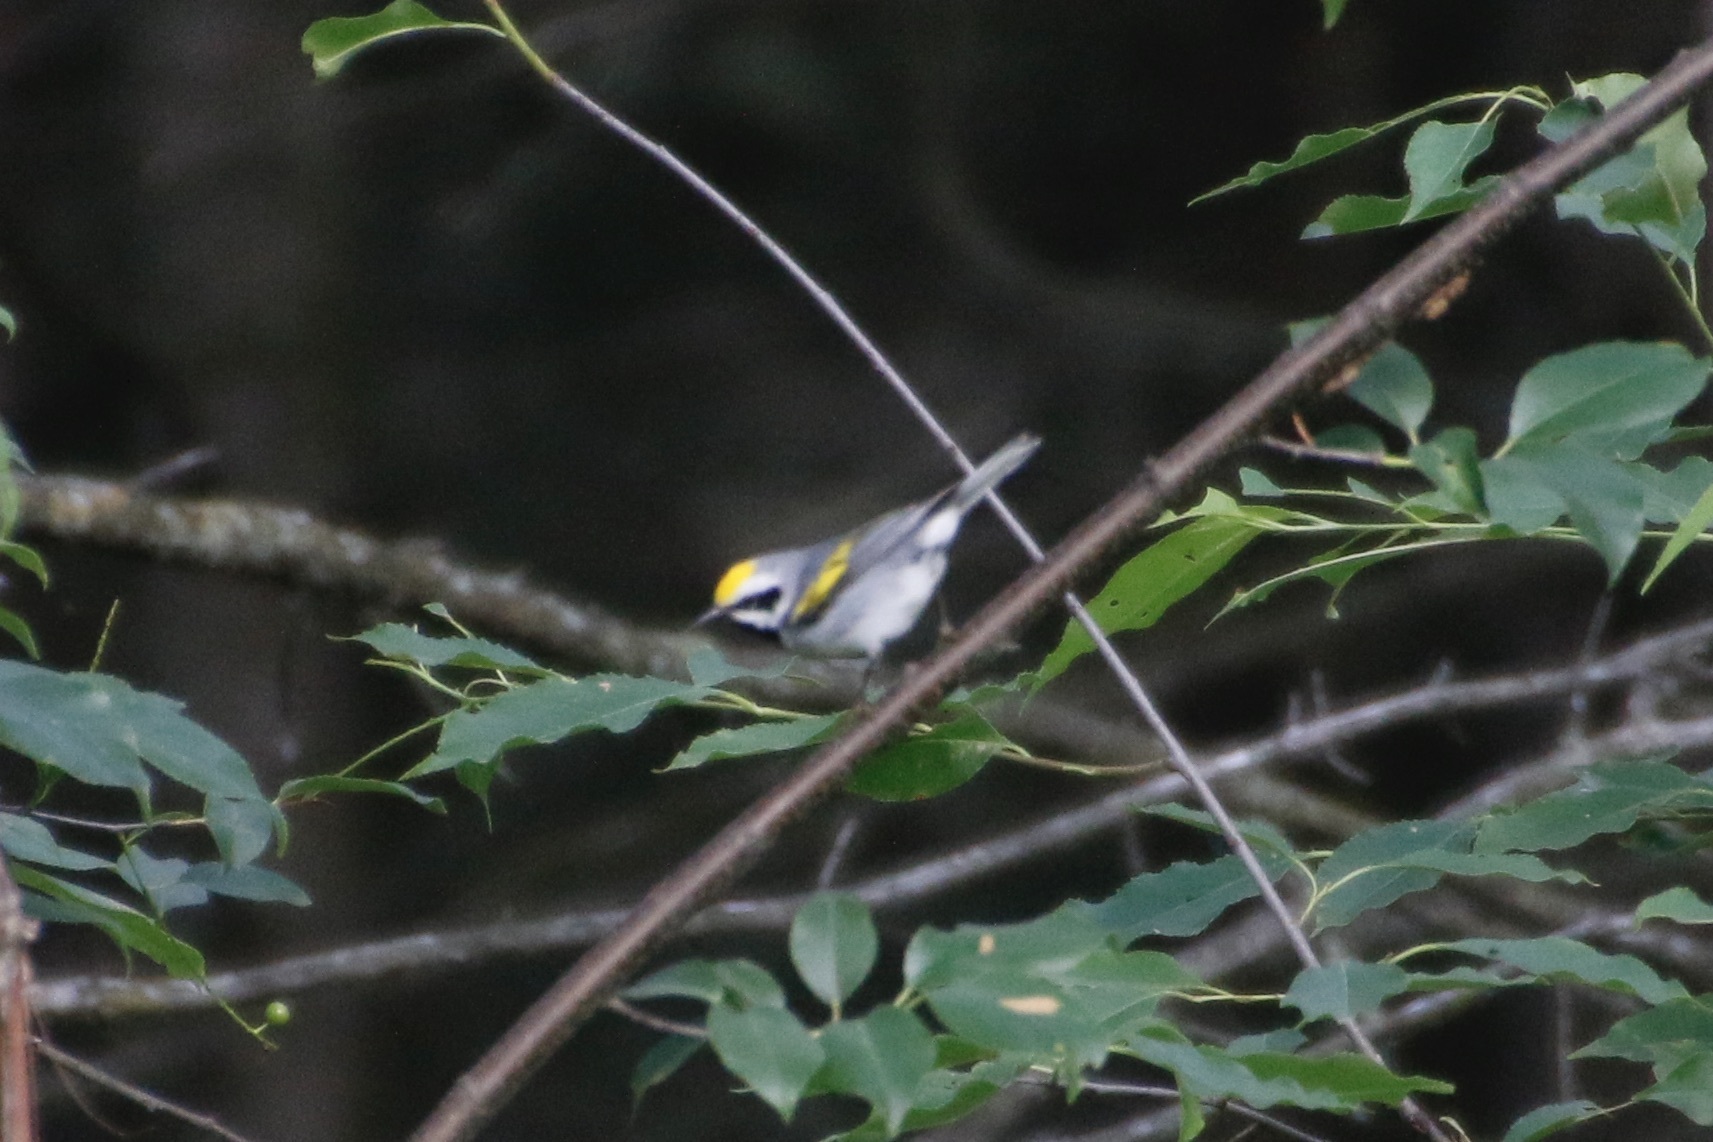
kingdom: Animalia
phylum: Chordata
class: Aves
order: Passeriformes
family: Parulidae
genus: Vermivora
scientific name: Vermivora chrysoptera
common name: Golden-winged warbler
